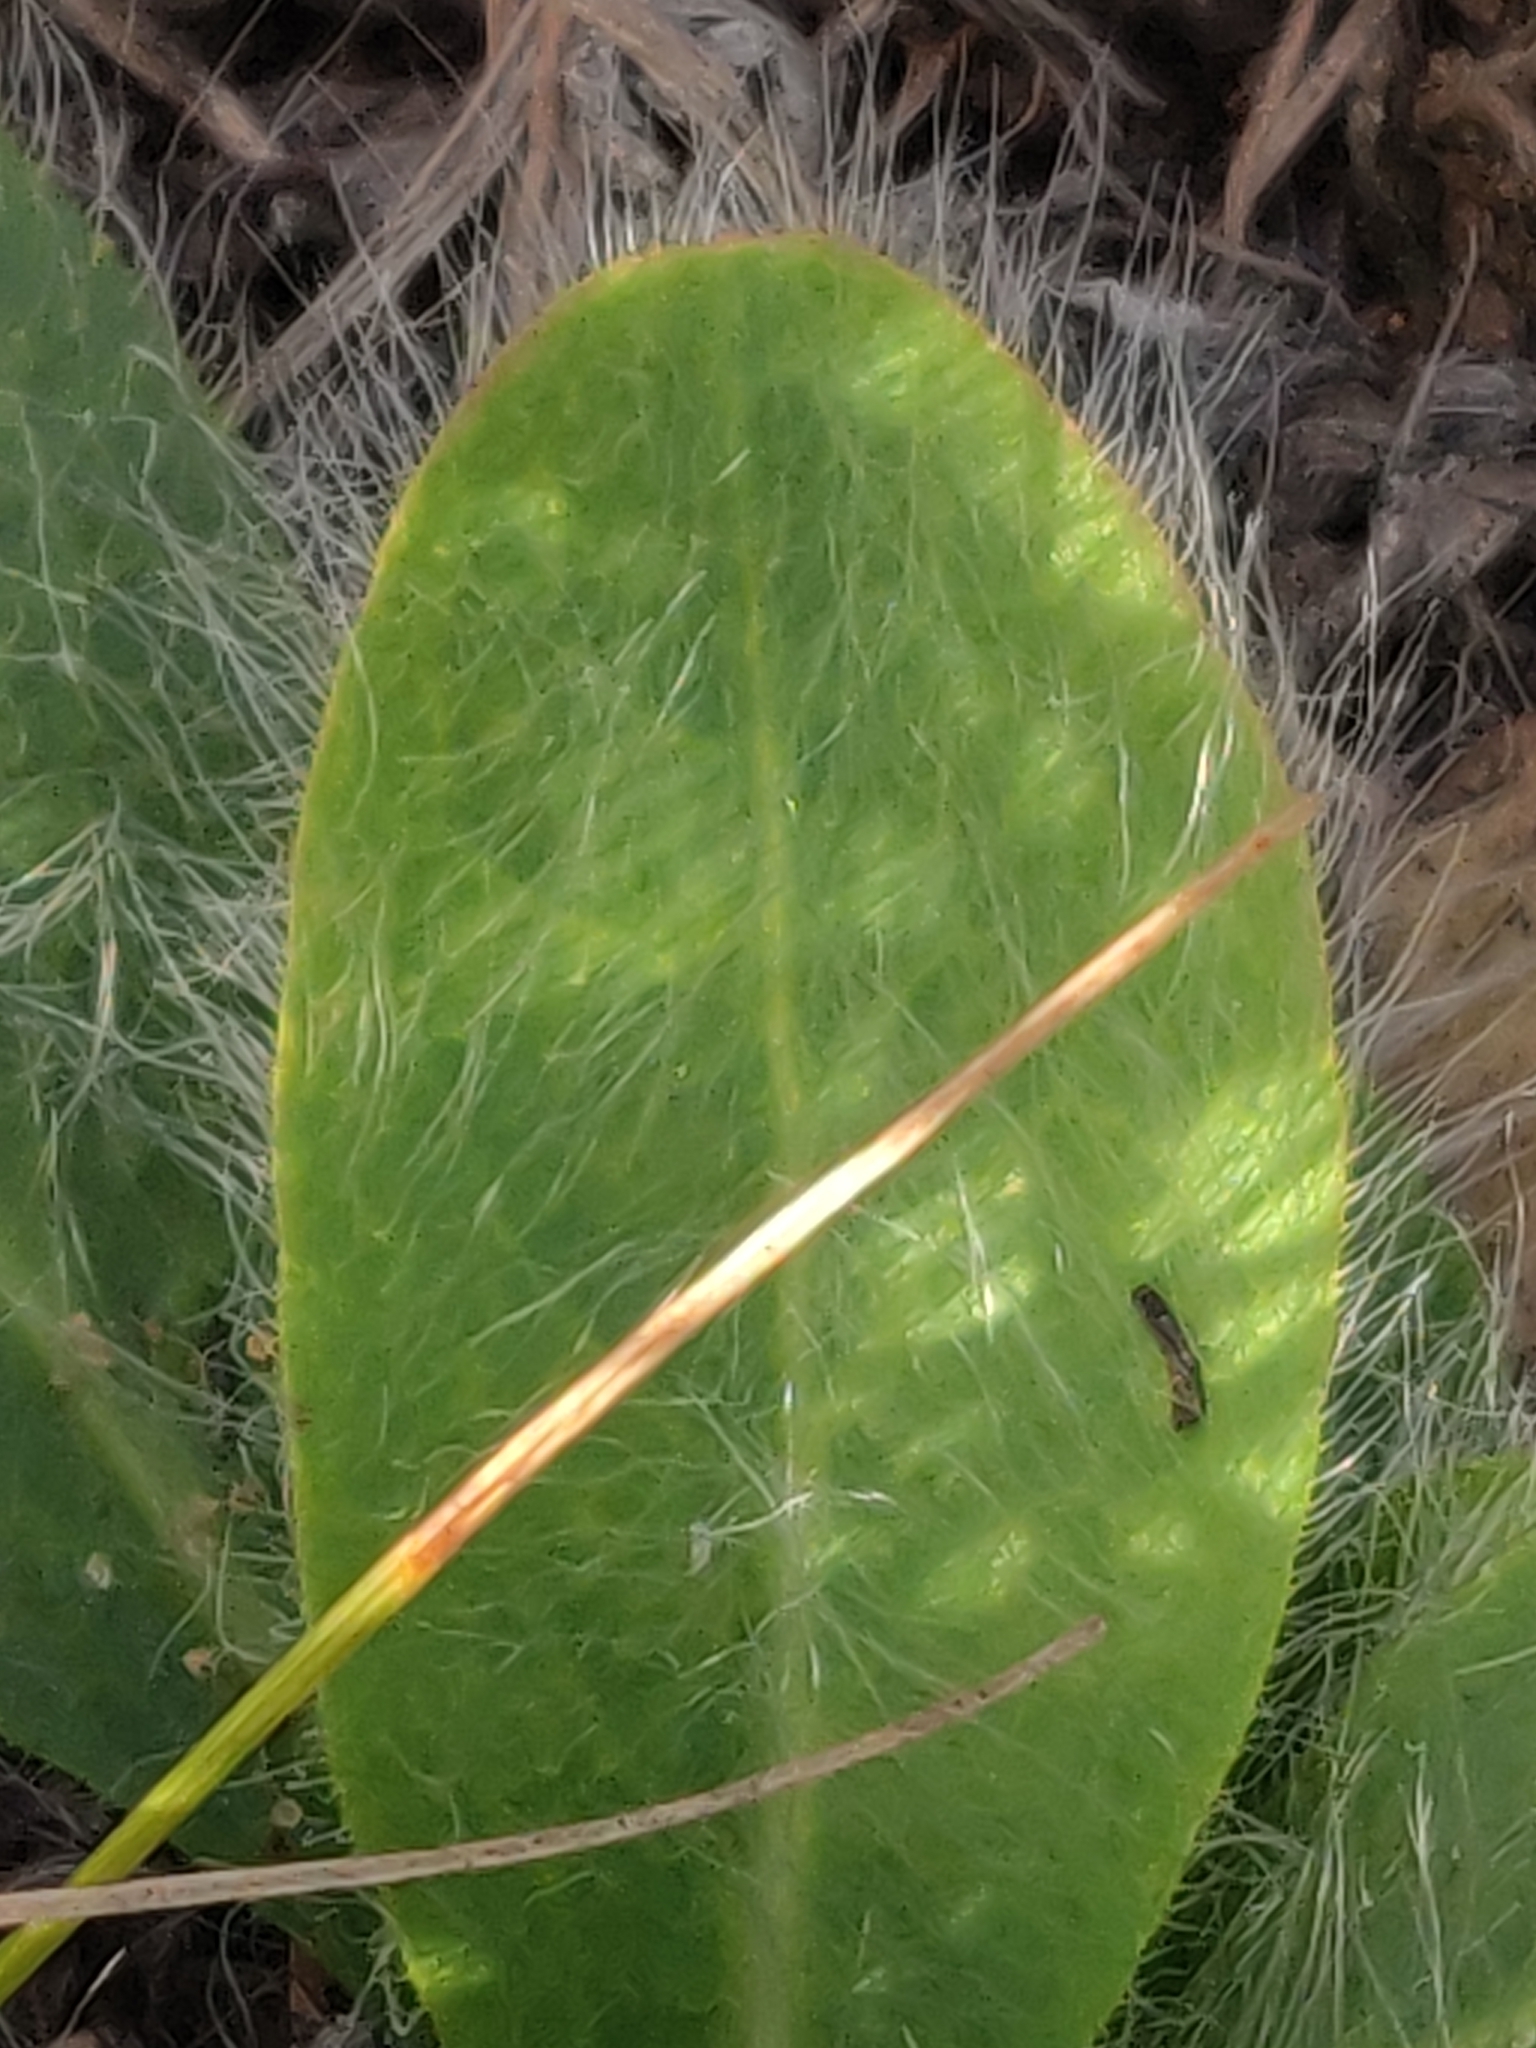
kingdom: Plantae
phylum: Tracheophyta
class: Magnoliopsida
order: Asterales
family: Asteraceae
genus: Hieracium
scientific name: Hieracium longipilum
